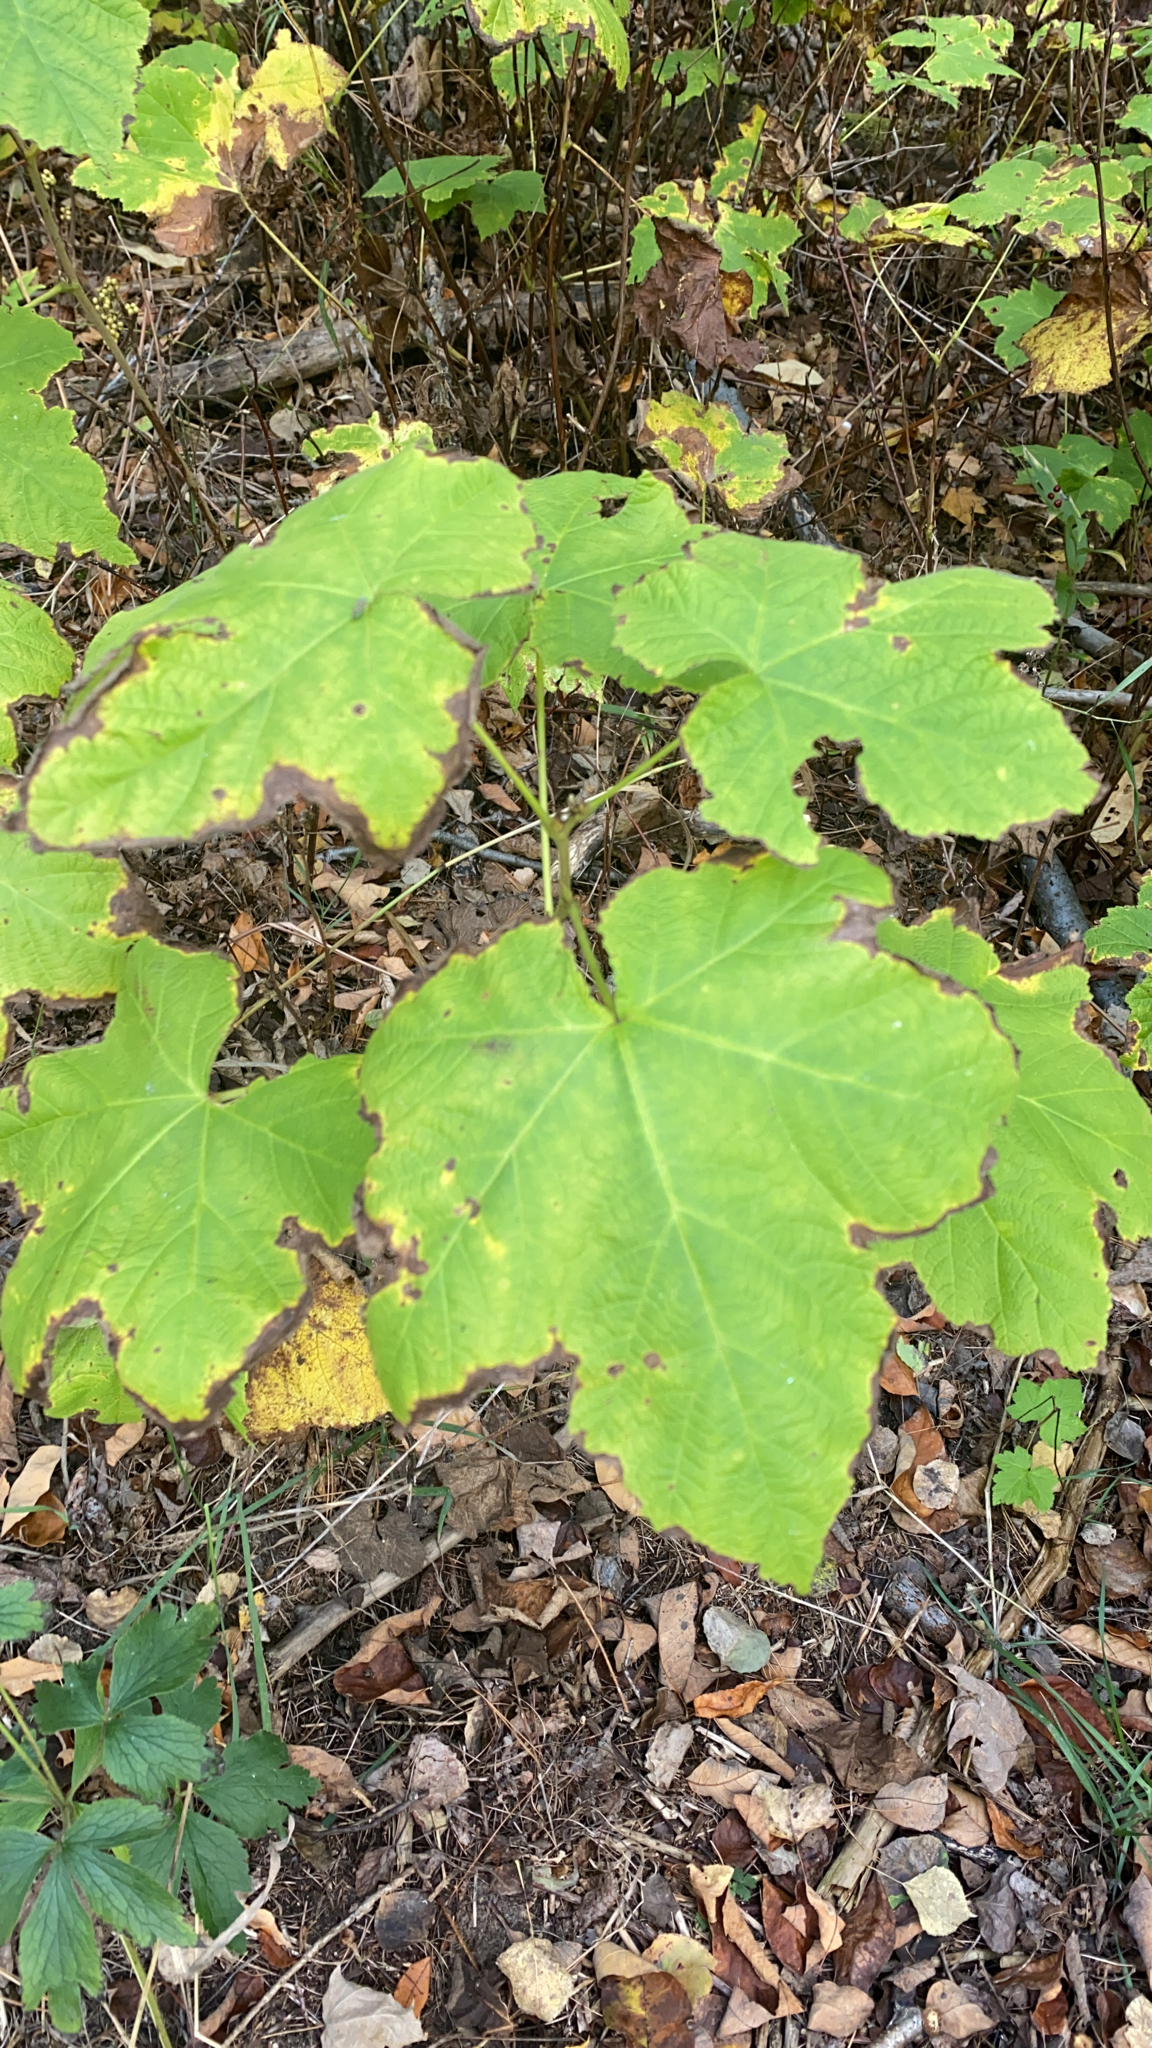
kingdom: Plantae
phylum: Tracheophyta
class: Magnoliopsida
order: Rosales
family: Rosaceae
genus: Rubus
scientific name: Rubus parviflorus
